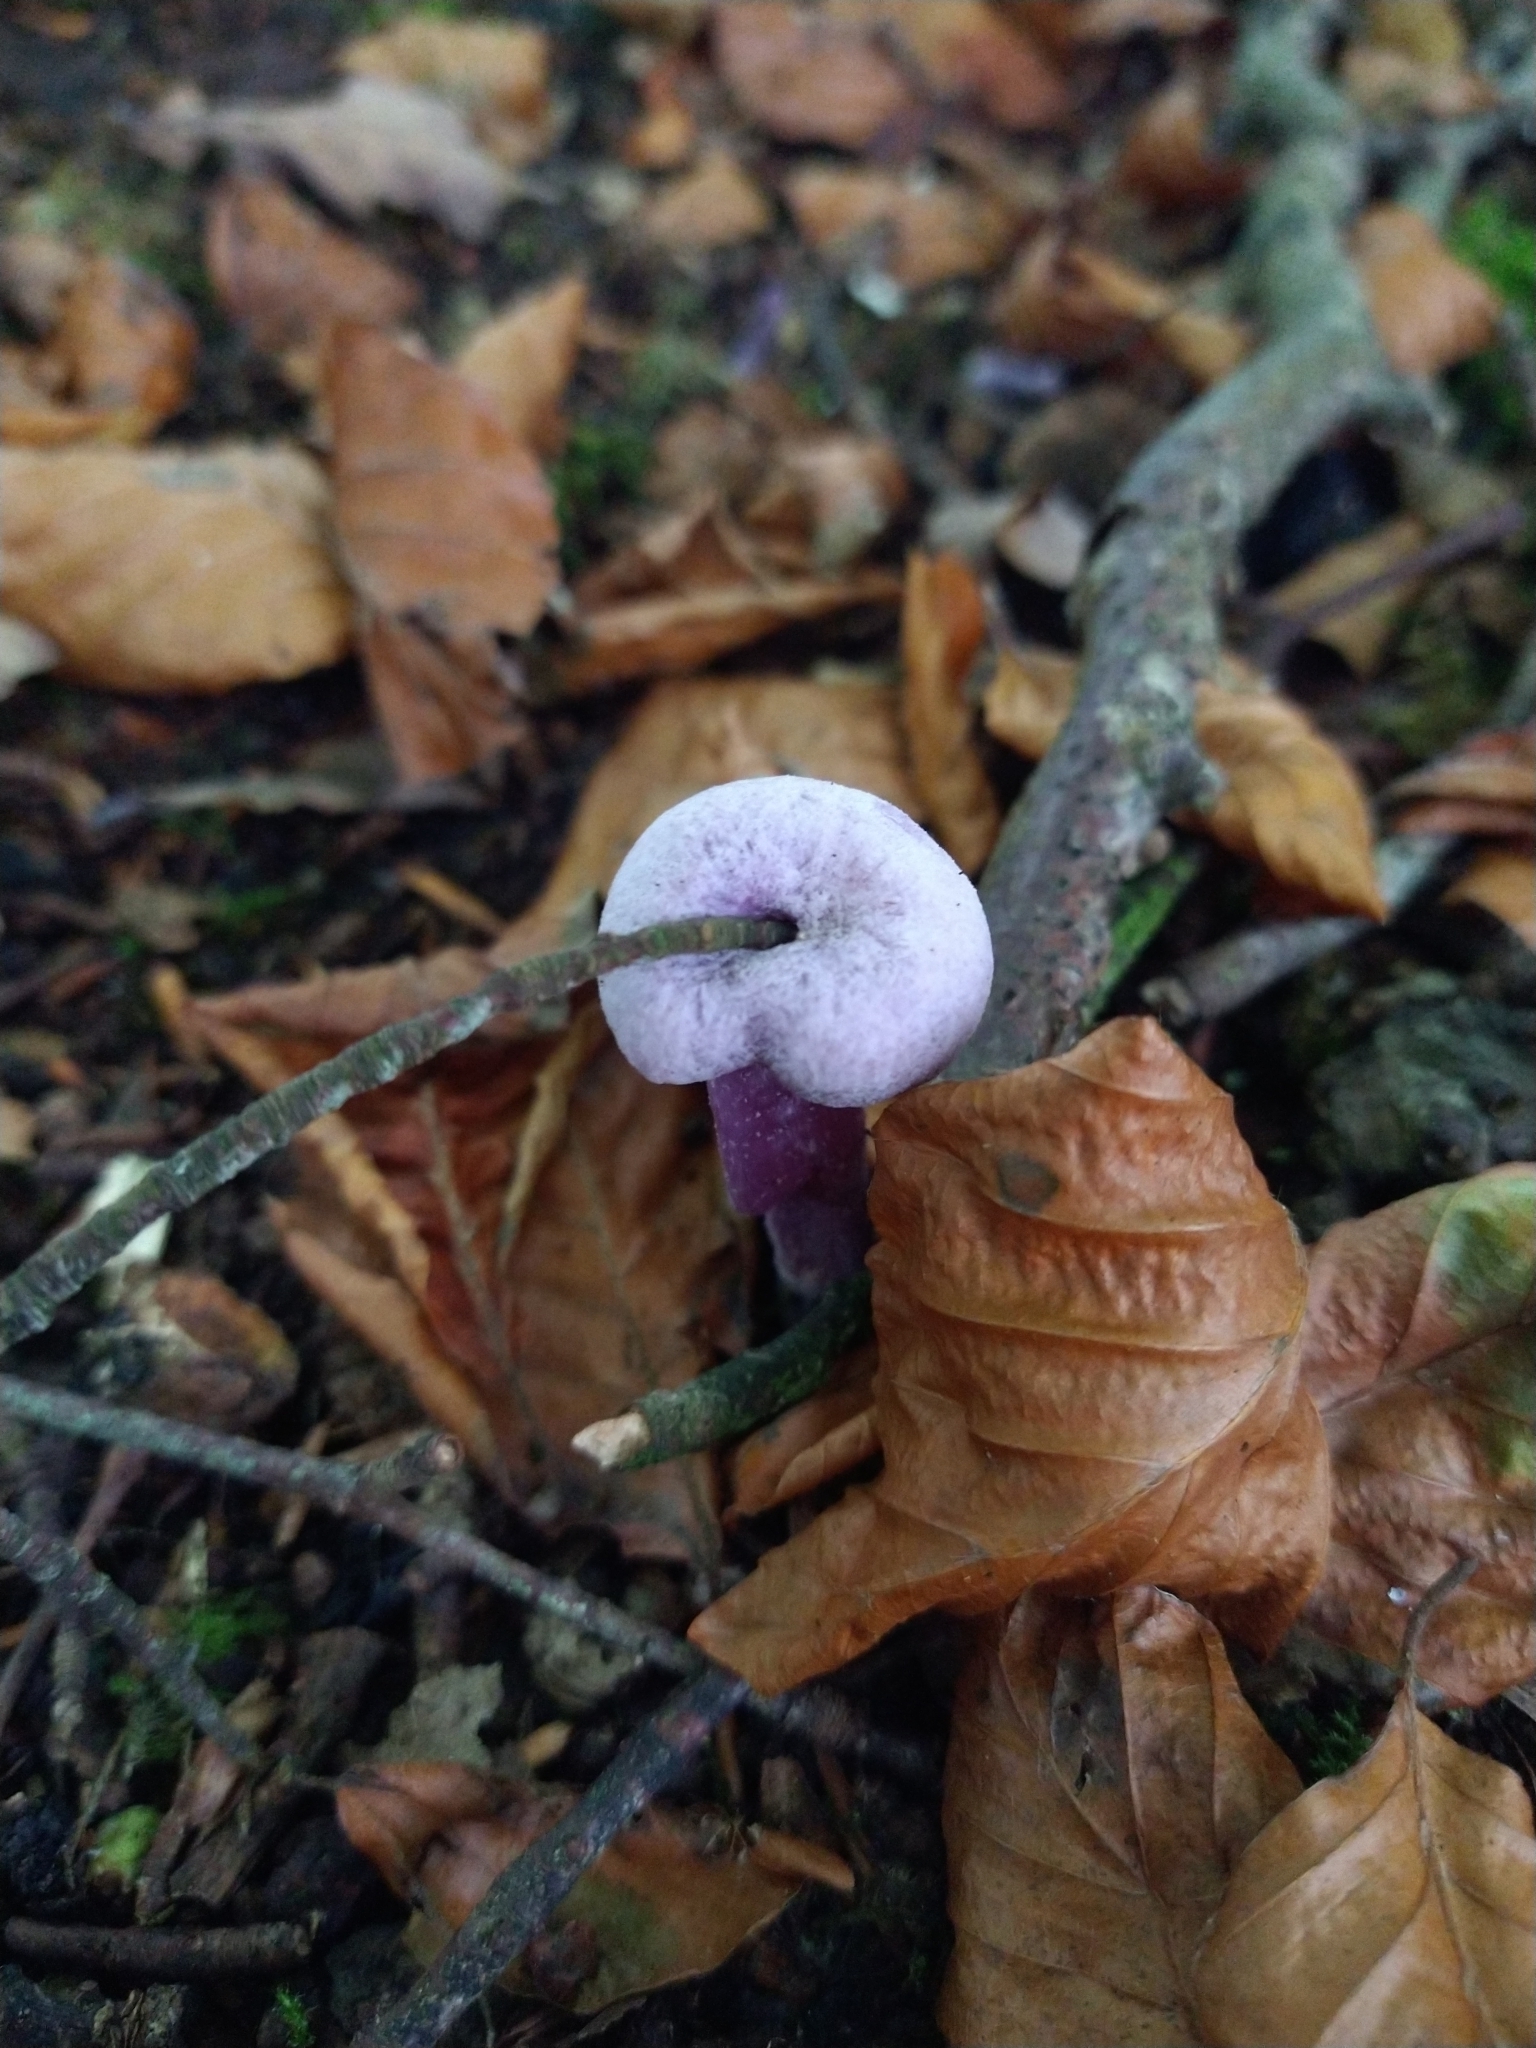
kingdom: Fungi
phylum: Basidiomycota
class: Agaricomycetes
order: Agaricales
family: Hydnangiaceae
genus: Laccaria
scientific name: Laccaria amethystina
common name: Amethyst deceiver
